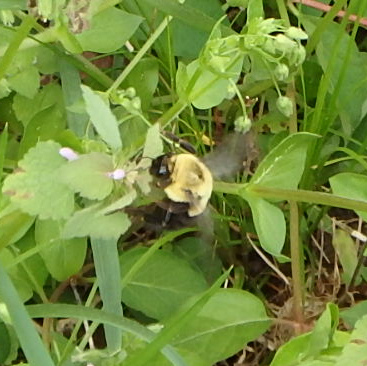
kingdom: Animalia
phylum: Arthropoda
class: Insecta
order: Hymenoptera
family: Apidae
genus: Bombus
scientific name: Bombus impatiens
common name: Common eastern bumble bee
